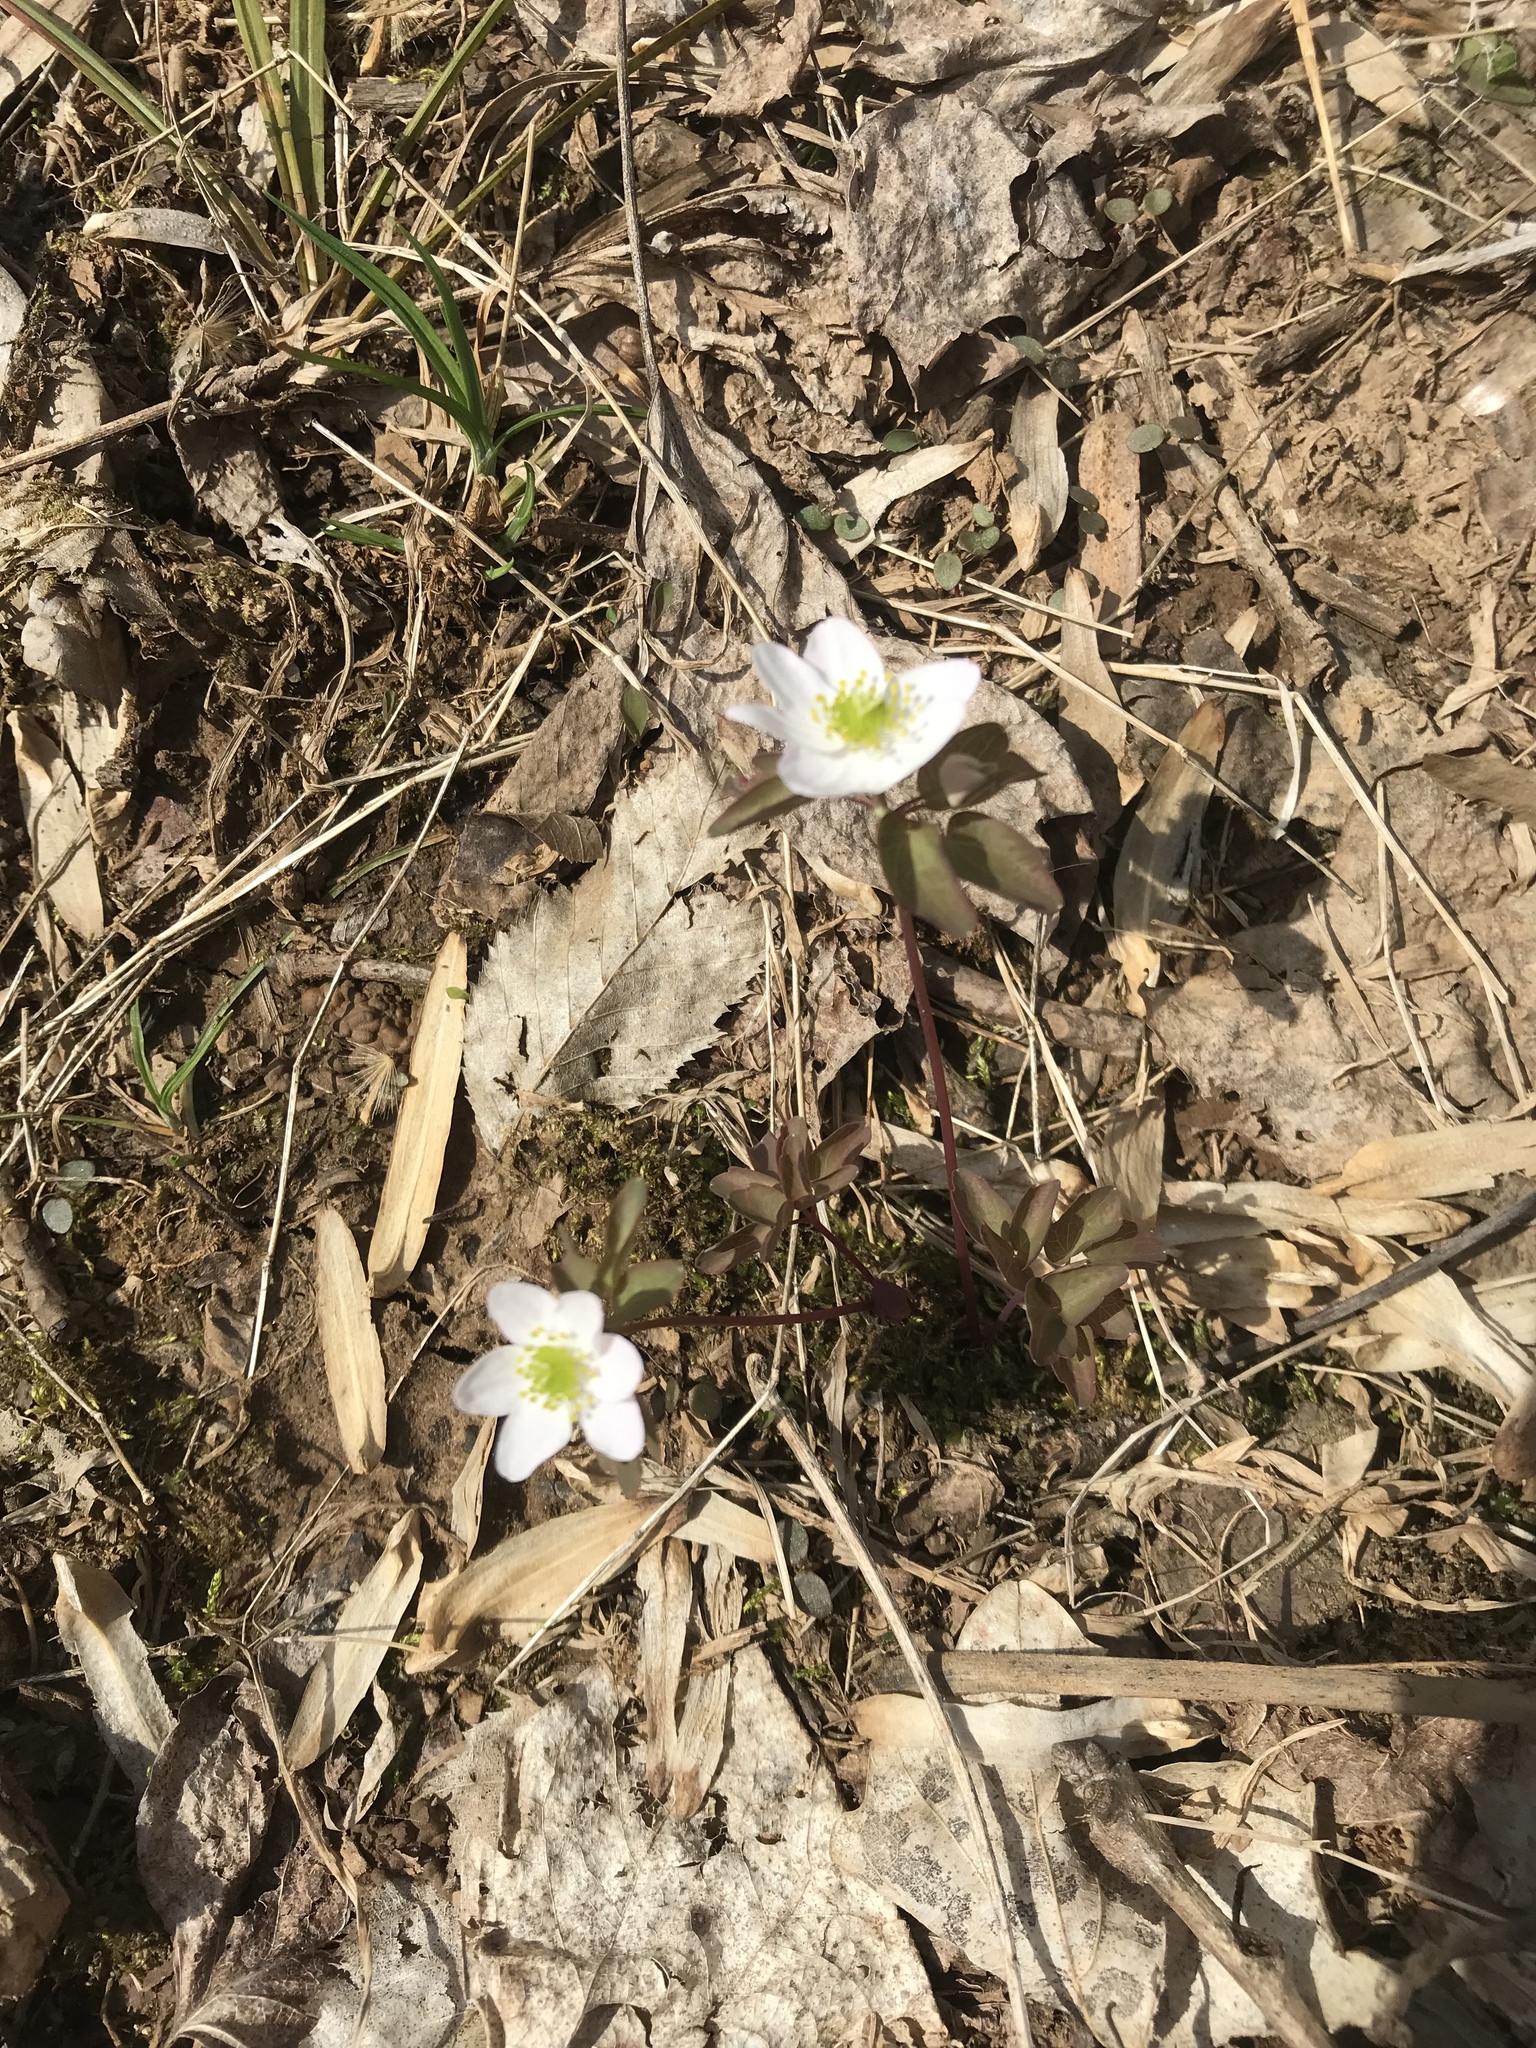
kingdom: Plantae
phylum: Tracheophyta
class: Magnoliopsida
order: Ranunculales
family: Ranunculaceae
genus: Thalictrum
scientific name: Thalictrum thalictroides
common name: Rue-anemone
